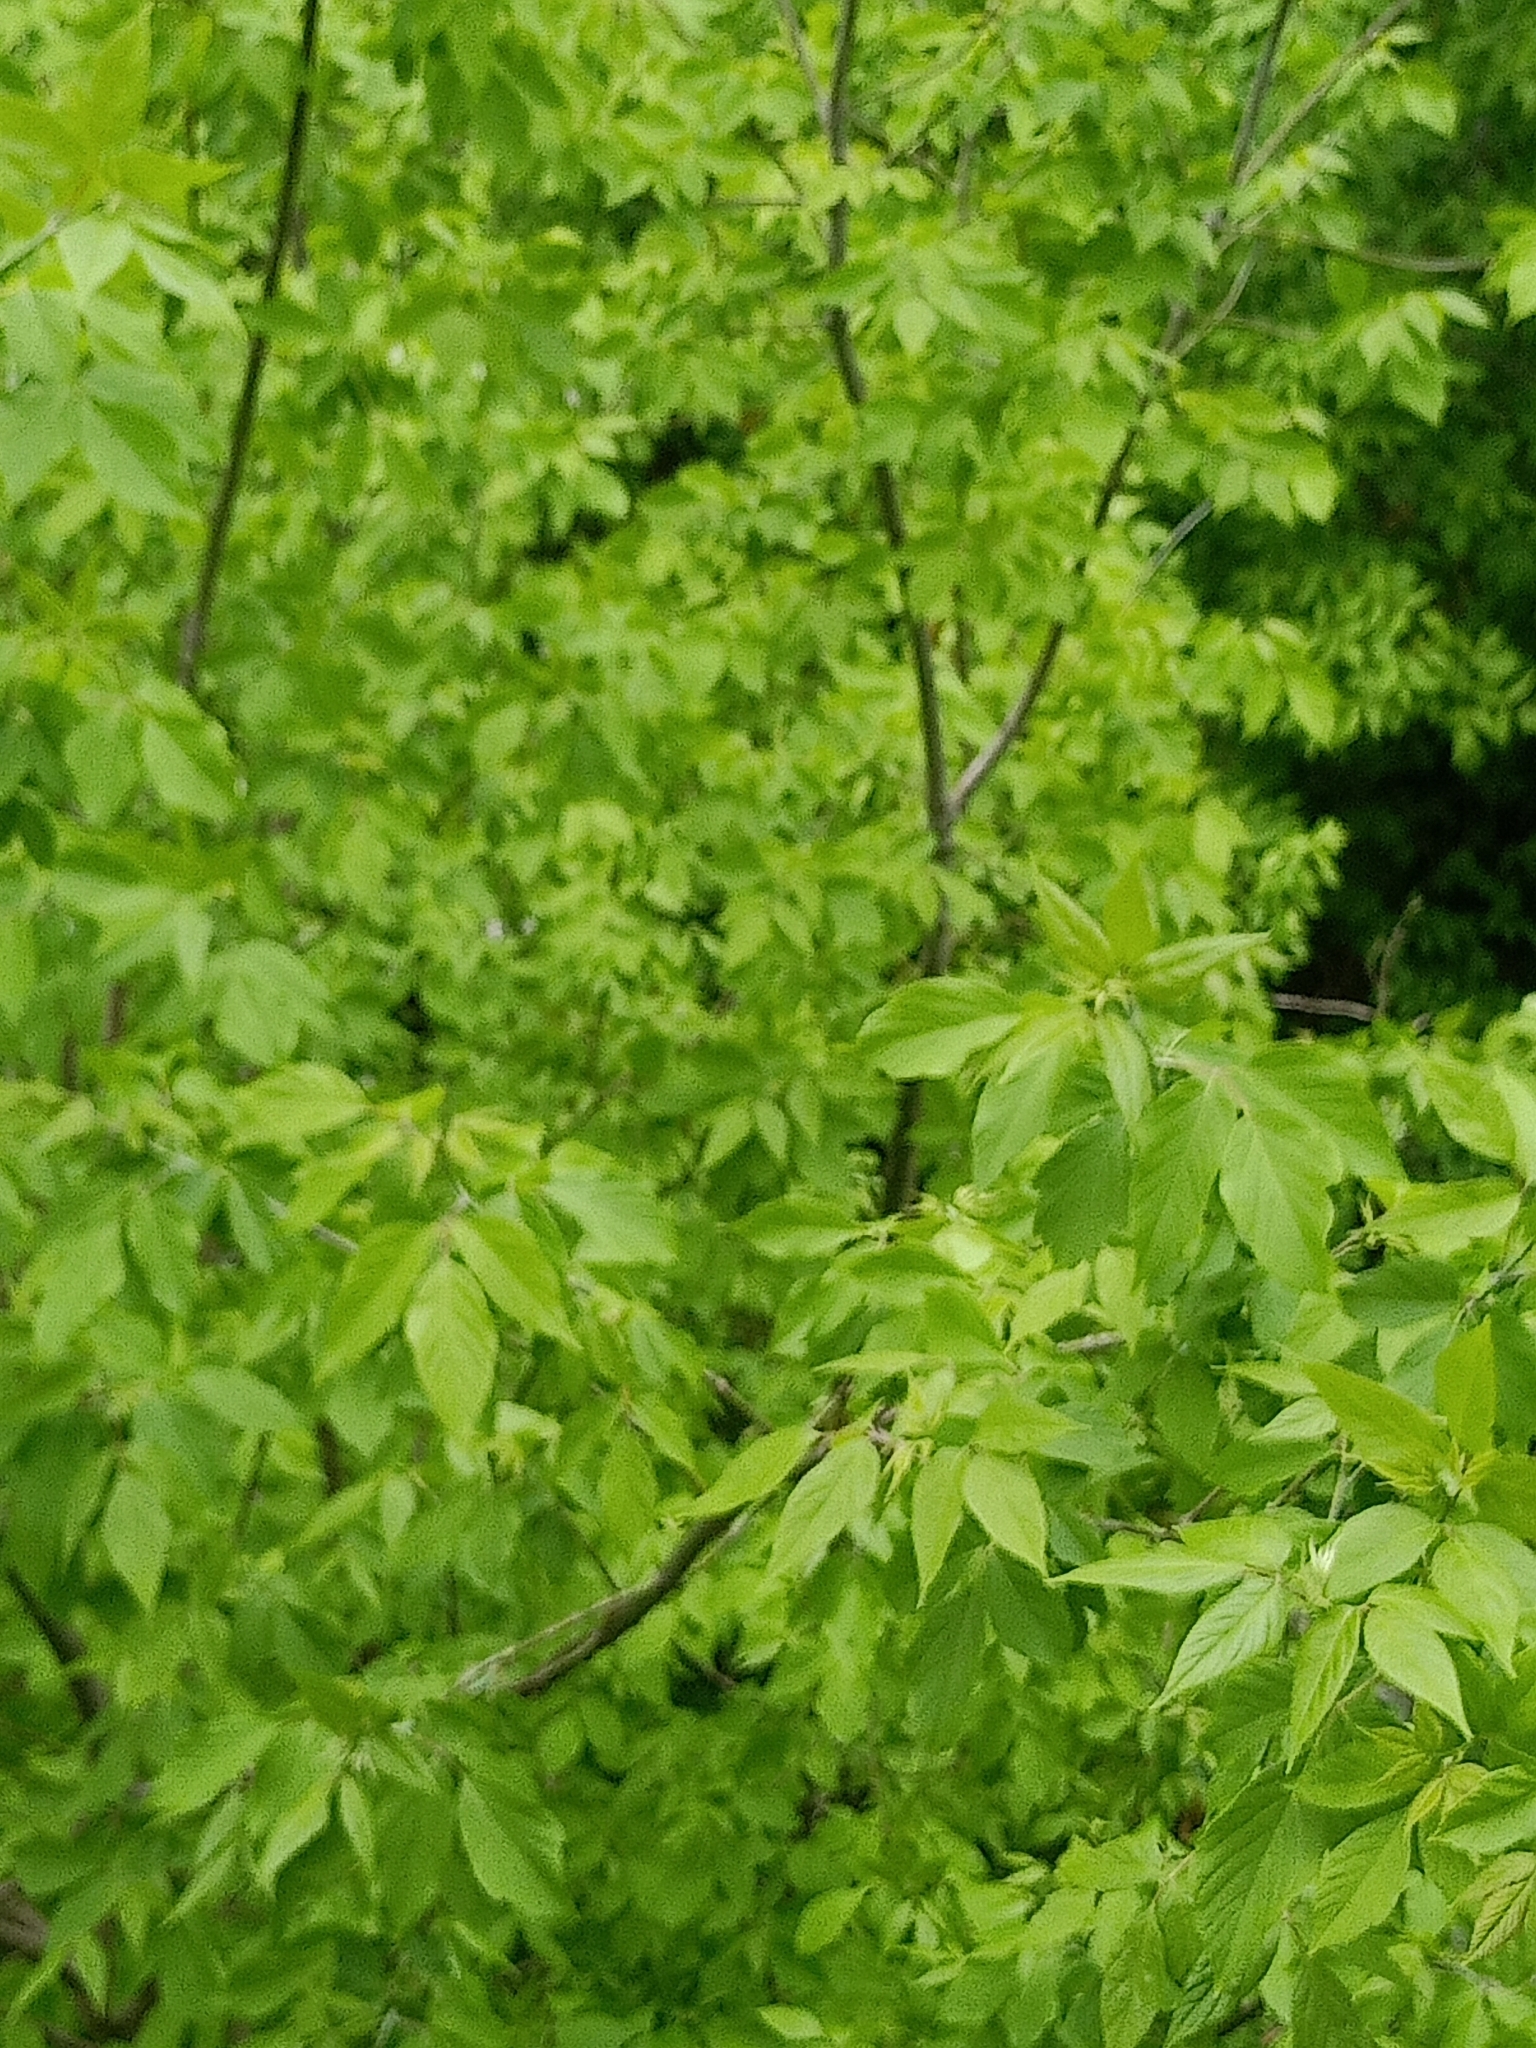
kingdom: Plantae
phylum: Tracheophyta
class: Magnoliopsida
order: Sapindales
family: Sapindaceae
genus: Acer
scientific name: Acer negundo
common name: Ashleaf maple
